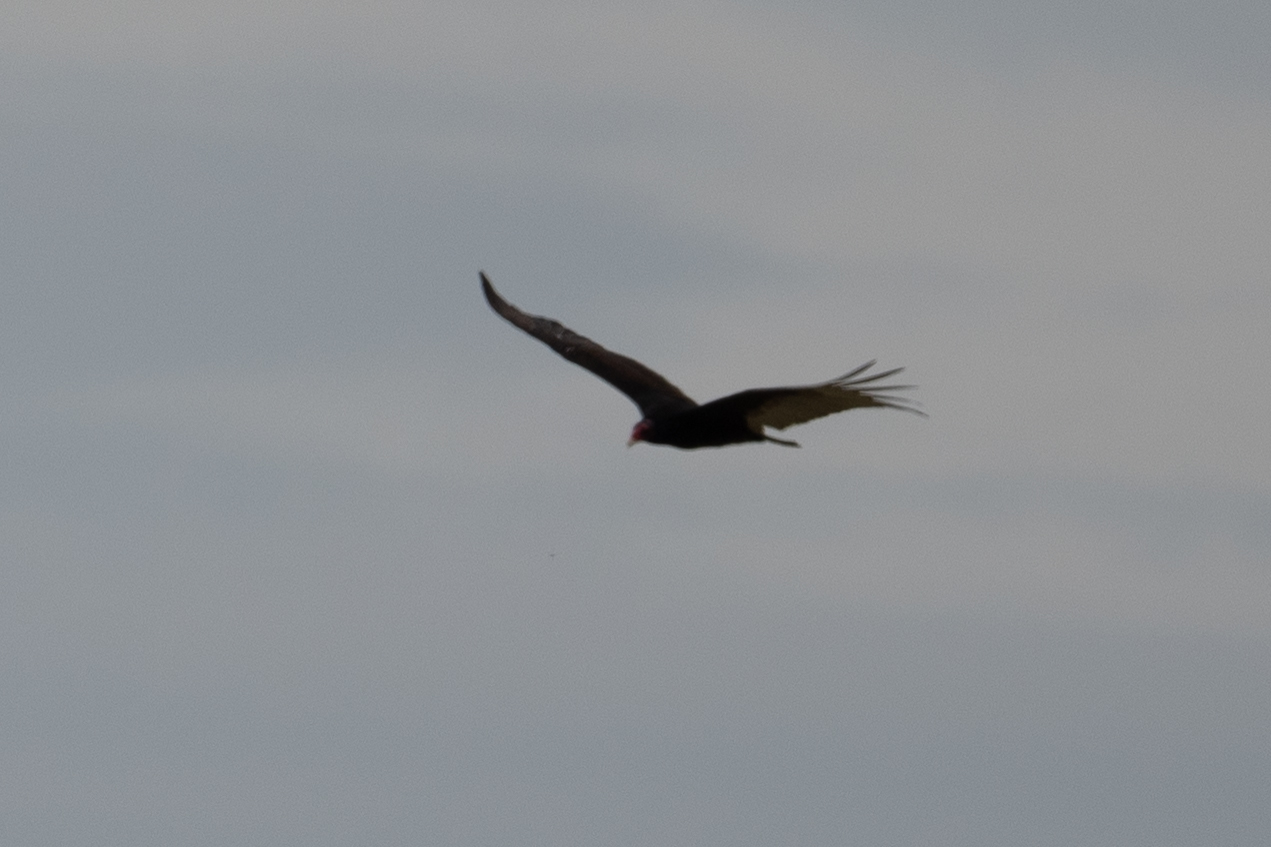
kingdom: Animalia
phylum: Chordata
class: Aves
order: Accipitriformes
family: Cathartidae
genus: Cathartes
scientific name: Cathartes aura
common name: Turkey vulture
